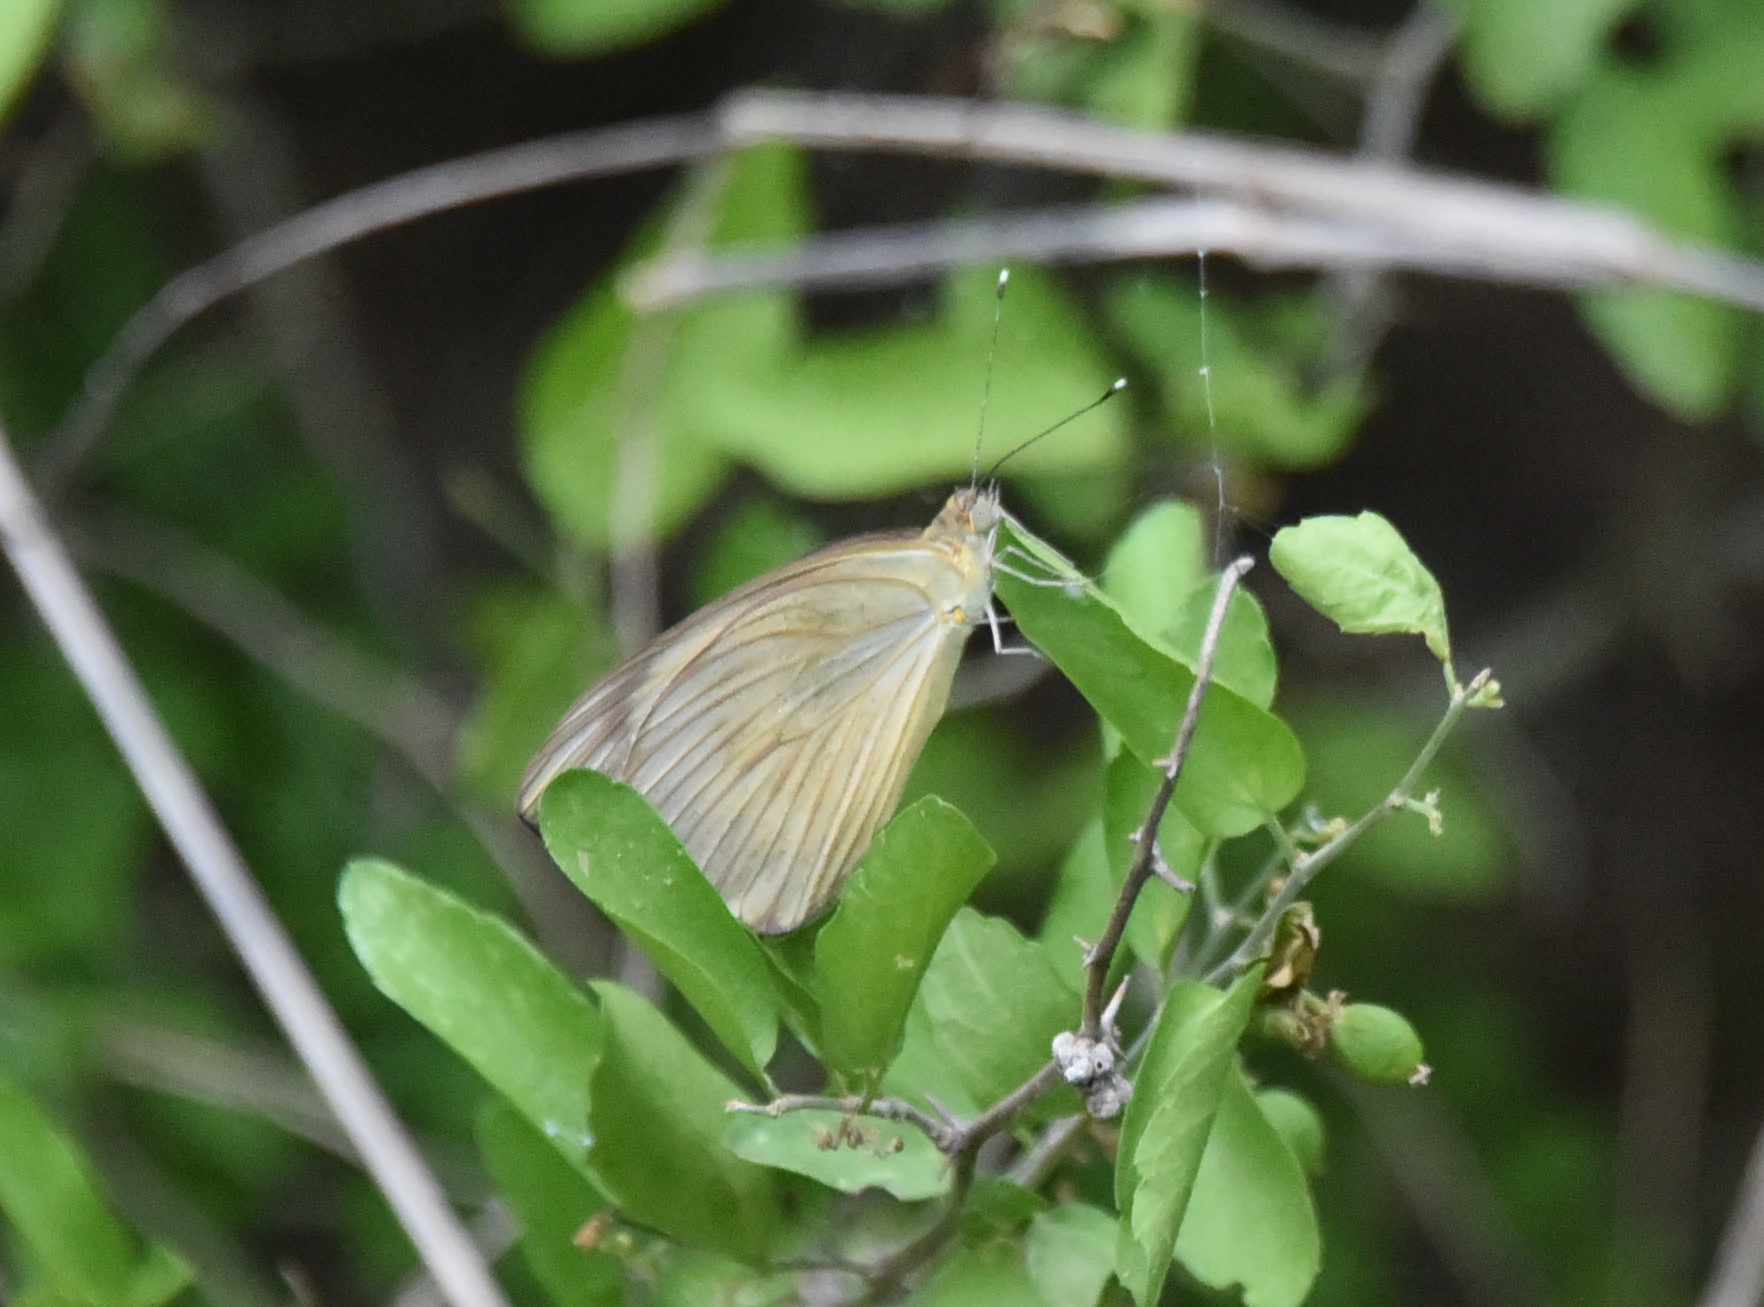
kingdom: Animalia
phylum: Arthropoda
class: Insecta
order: Lepidoptera
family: Pieridae
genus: Ascia
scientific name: Ascia monuste
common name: Great southern white
